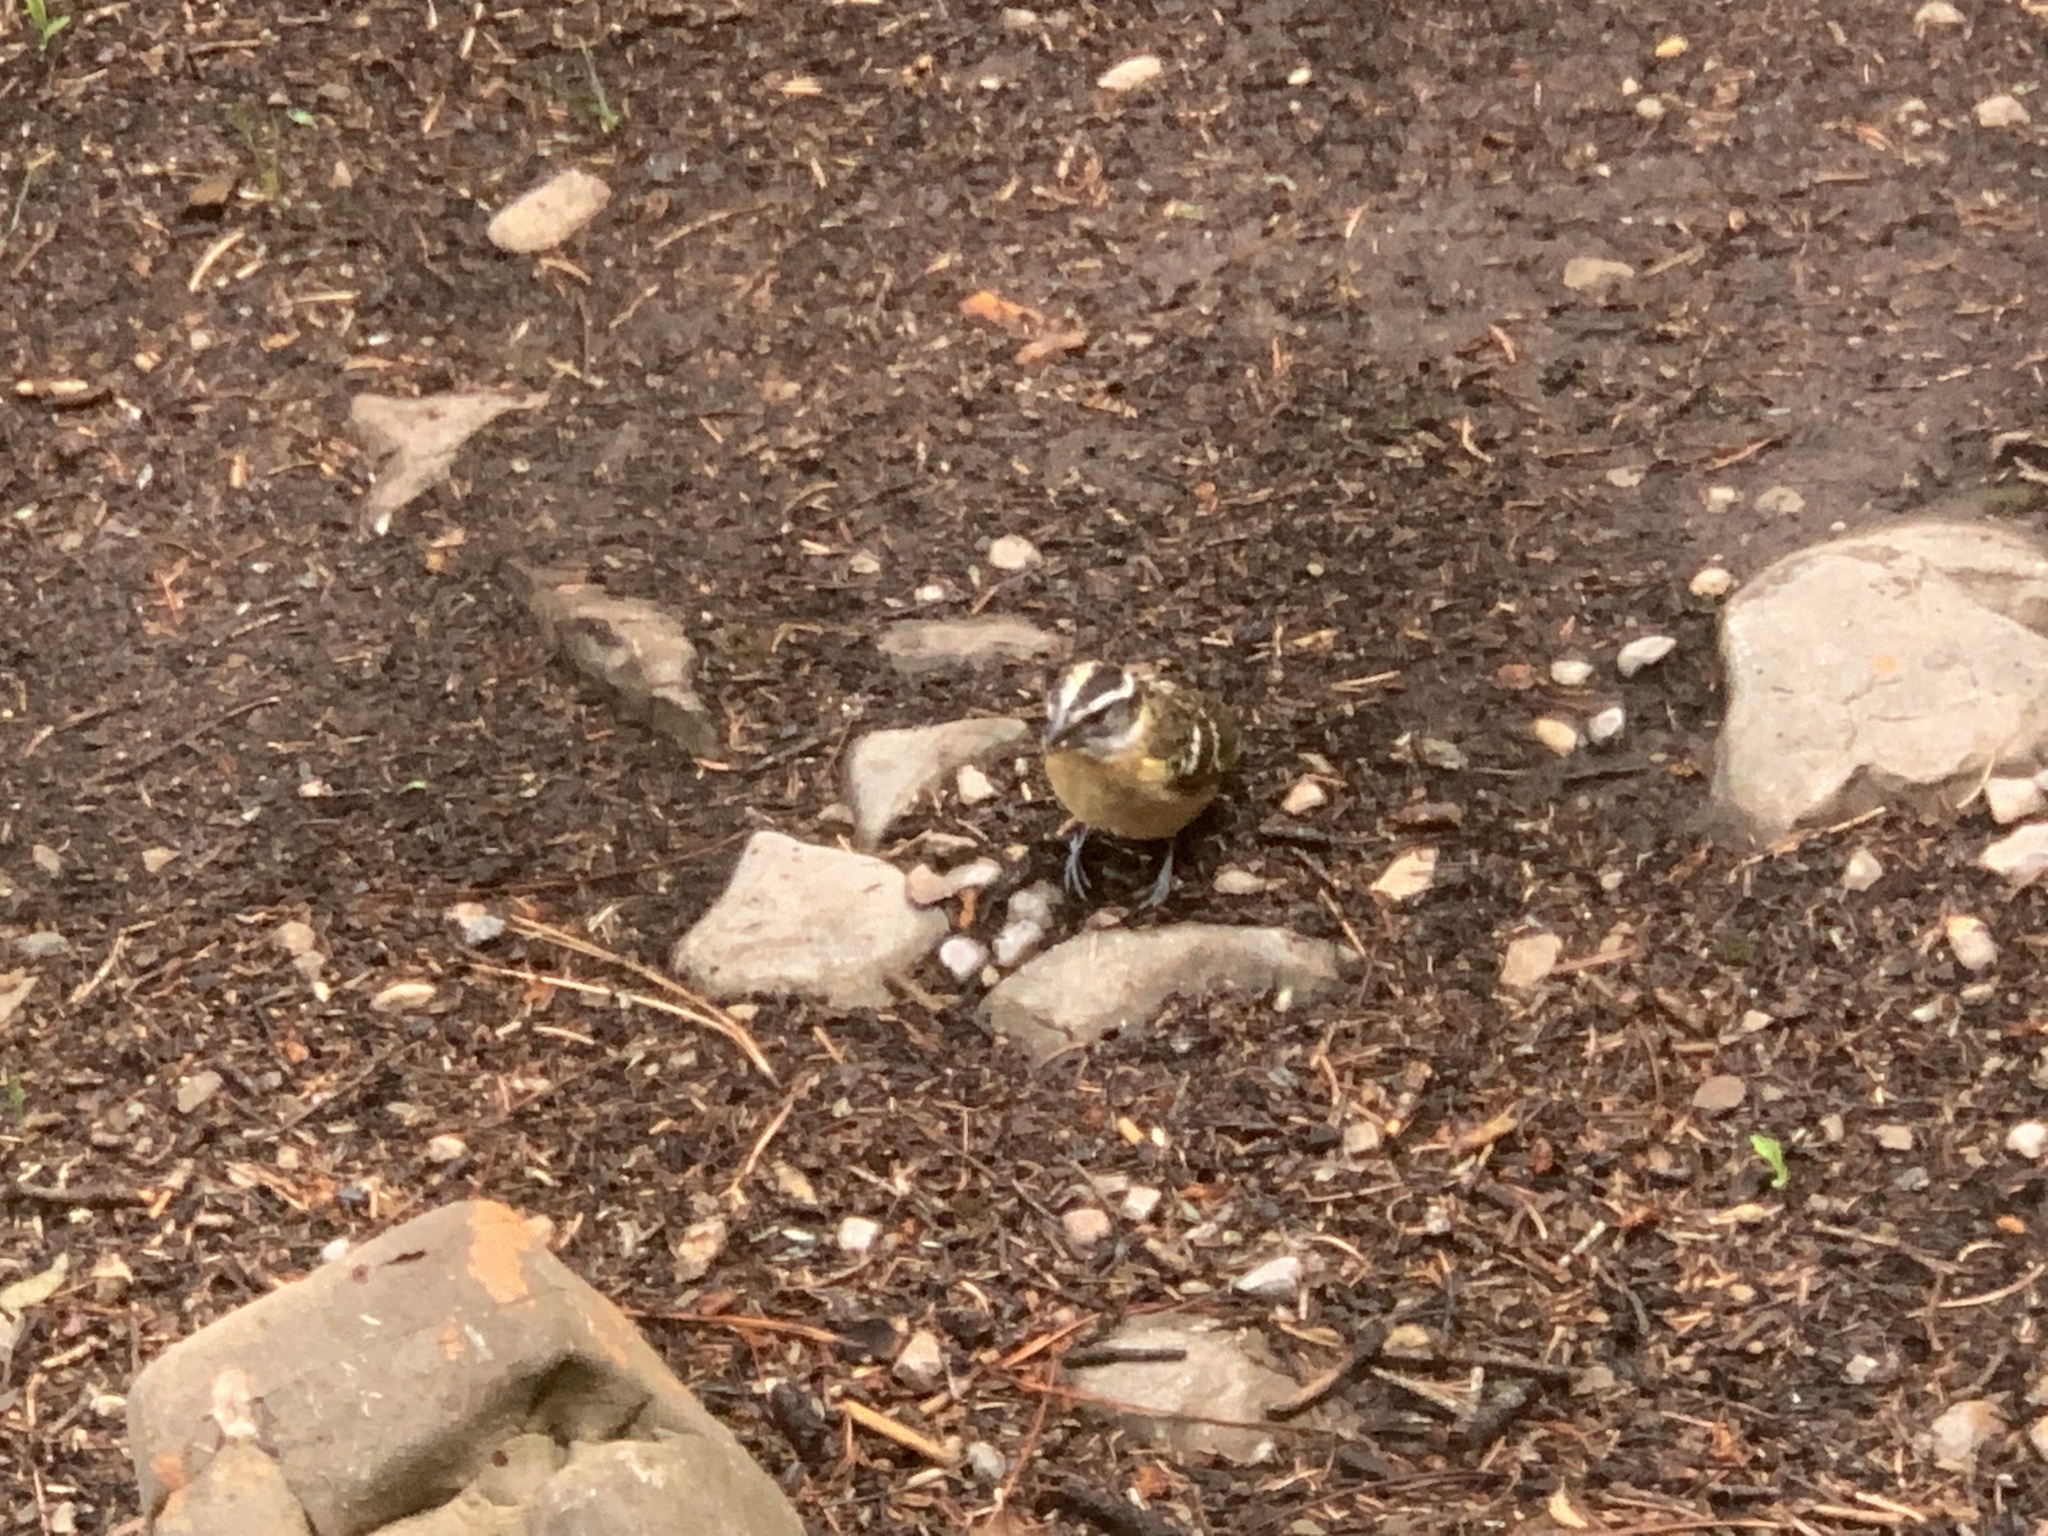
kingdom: Animalia
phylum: Chordata
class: Aves
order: Passeriformes
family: Cardinalidae
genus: Pheucticus
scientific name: Pheucticus melanocephalus
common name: Black-headed grosbeak
